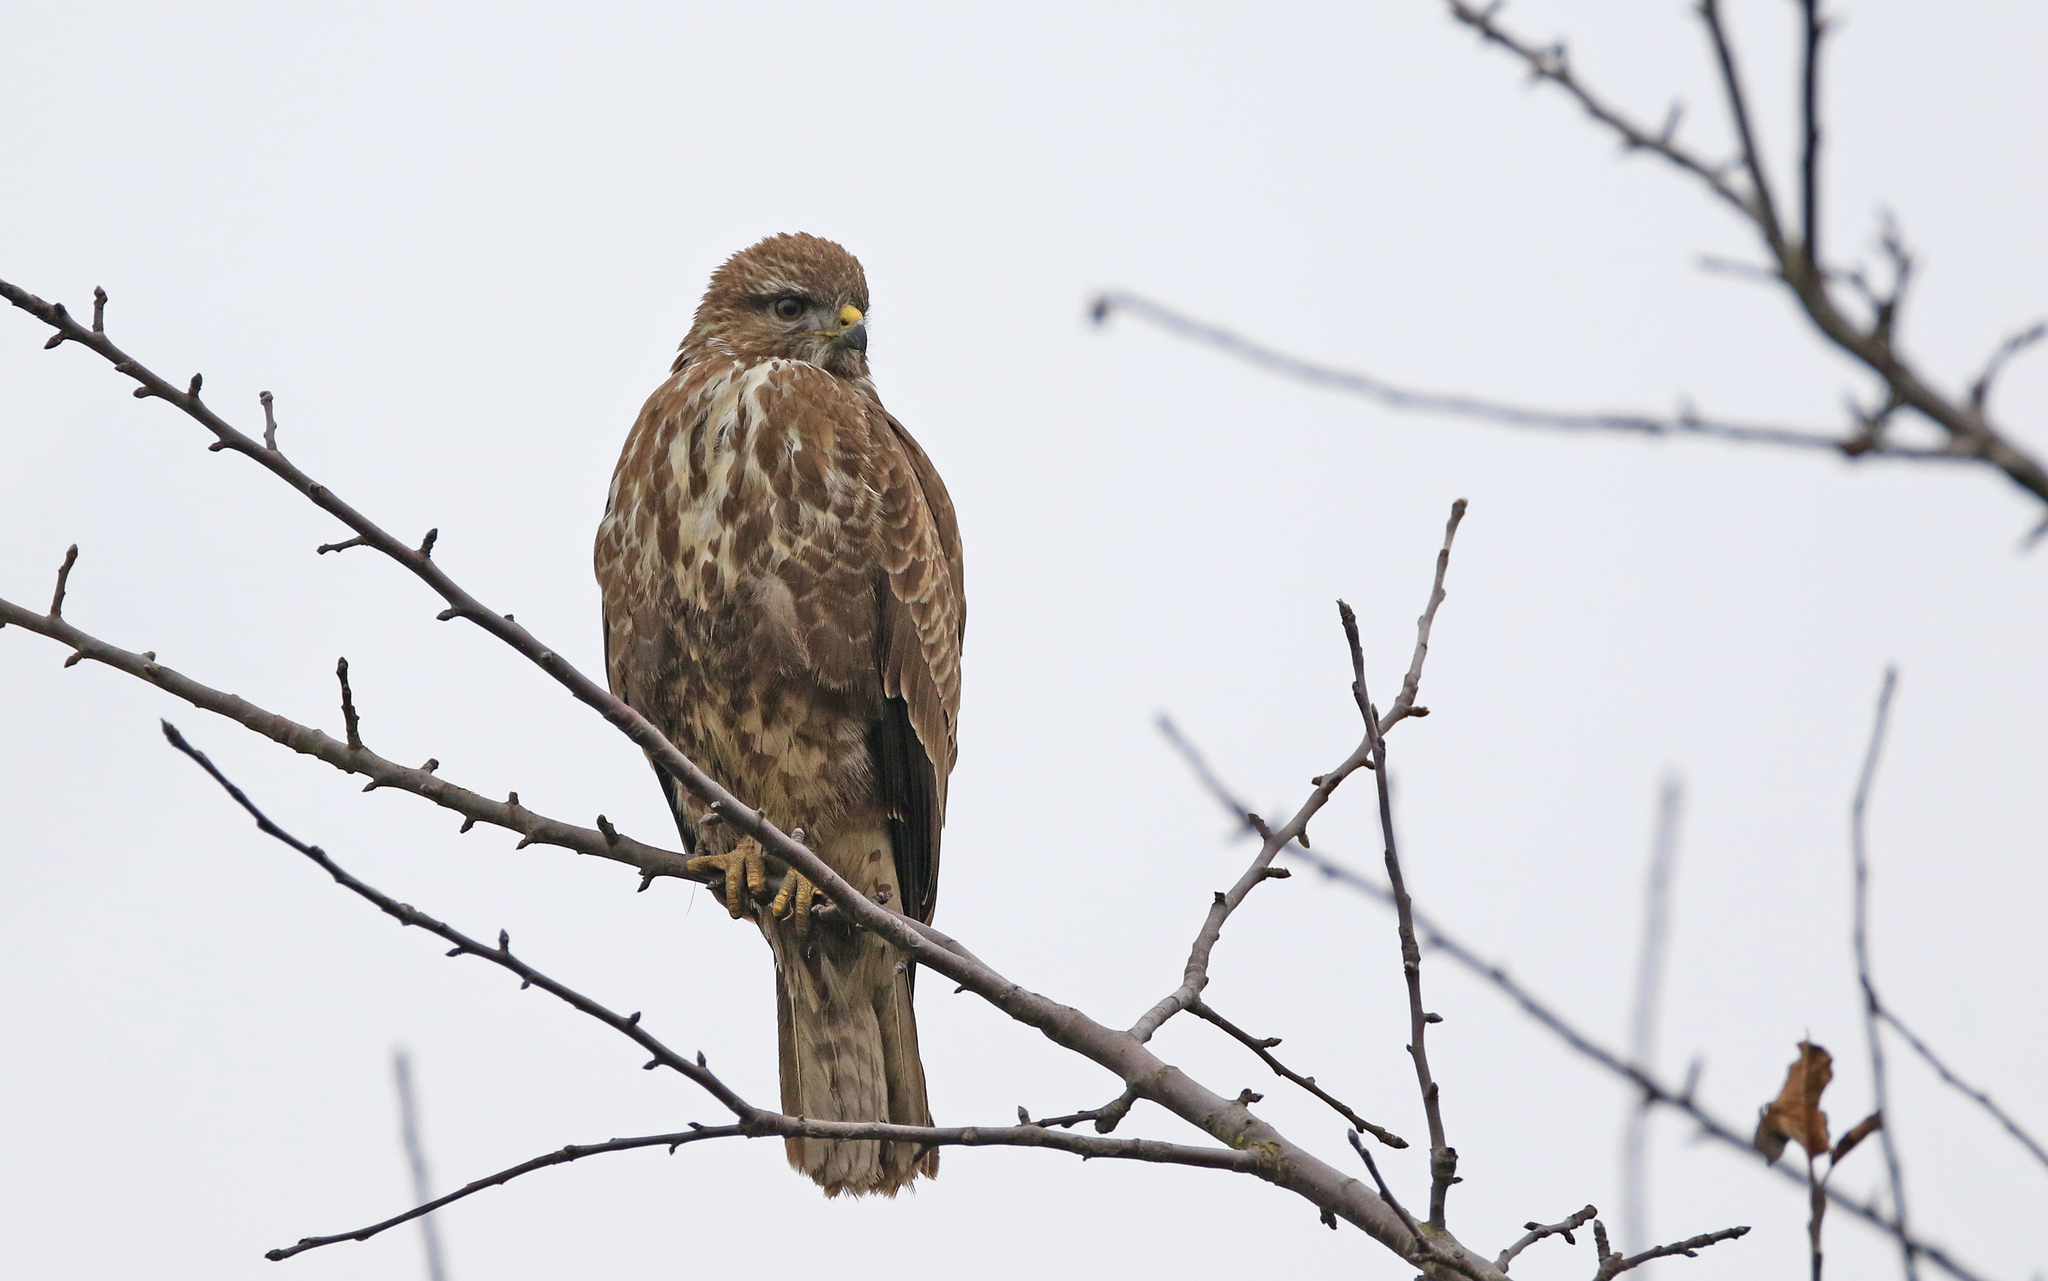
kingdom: Animalia
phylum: Chordata
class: Aves
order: Accipitriformes
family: Accipitridae
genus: Buteo
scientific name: Buteo buteo
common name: Common buzzard
